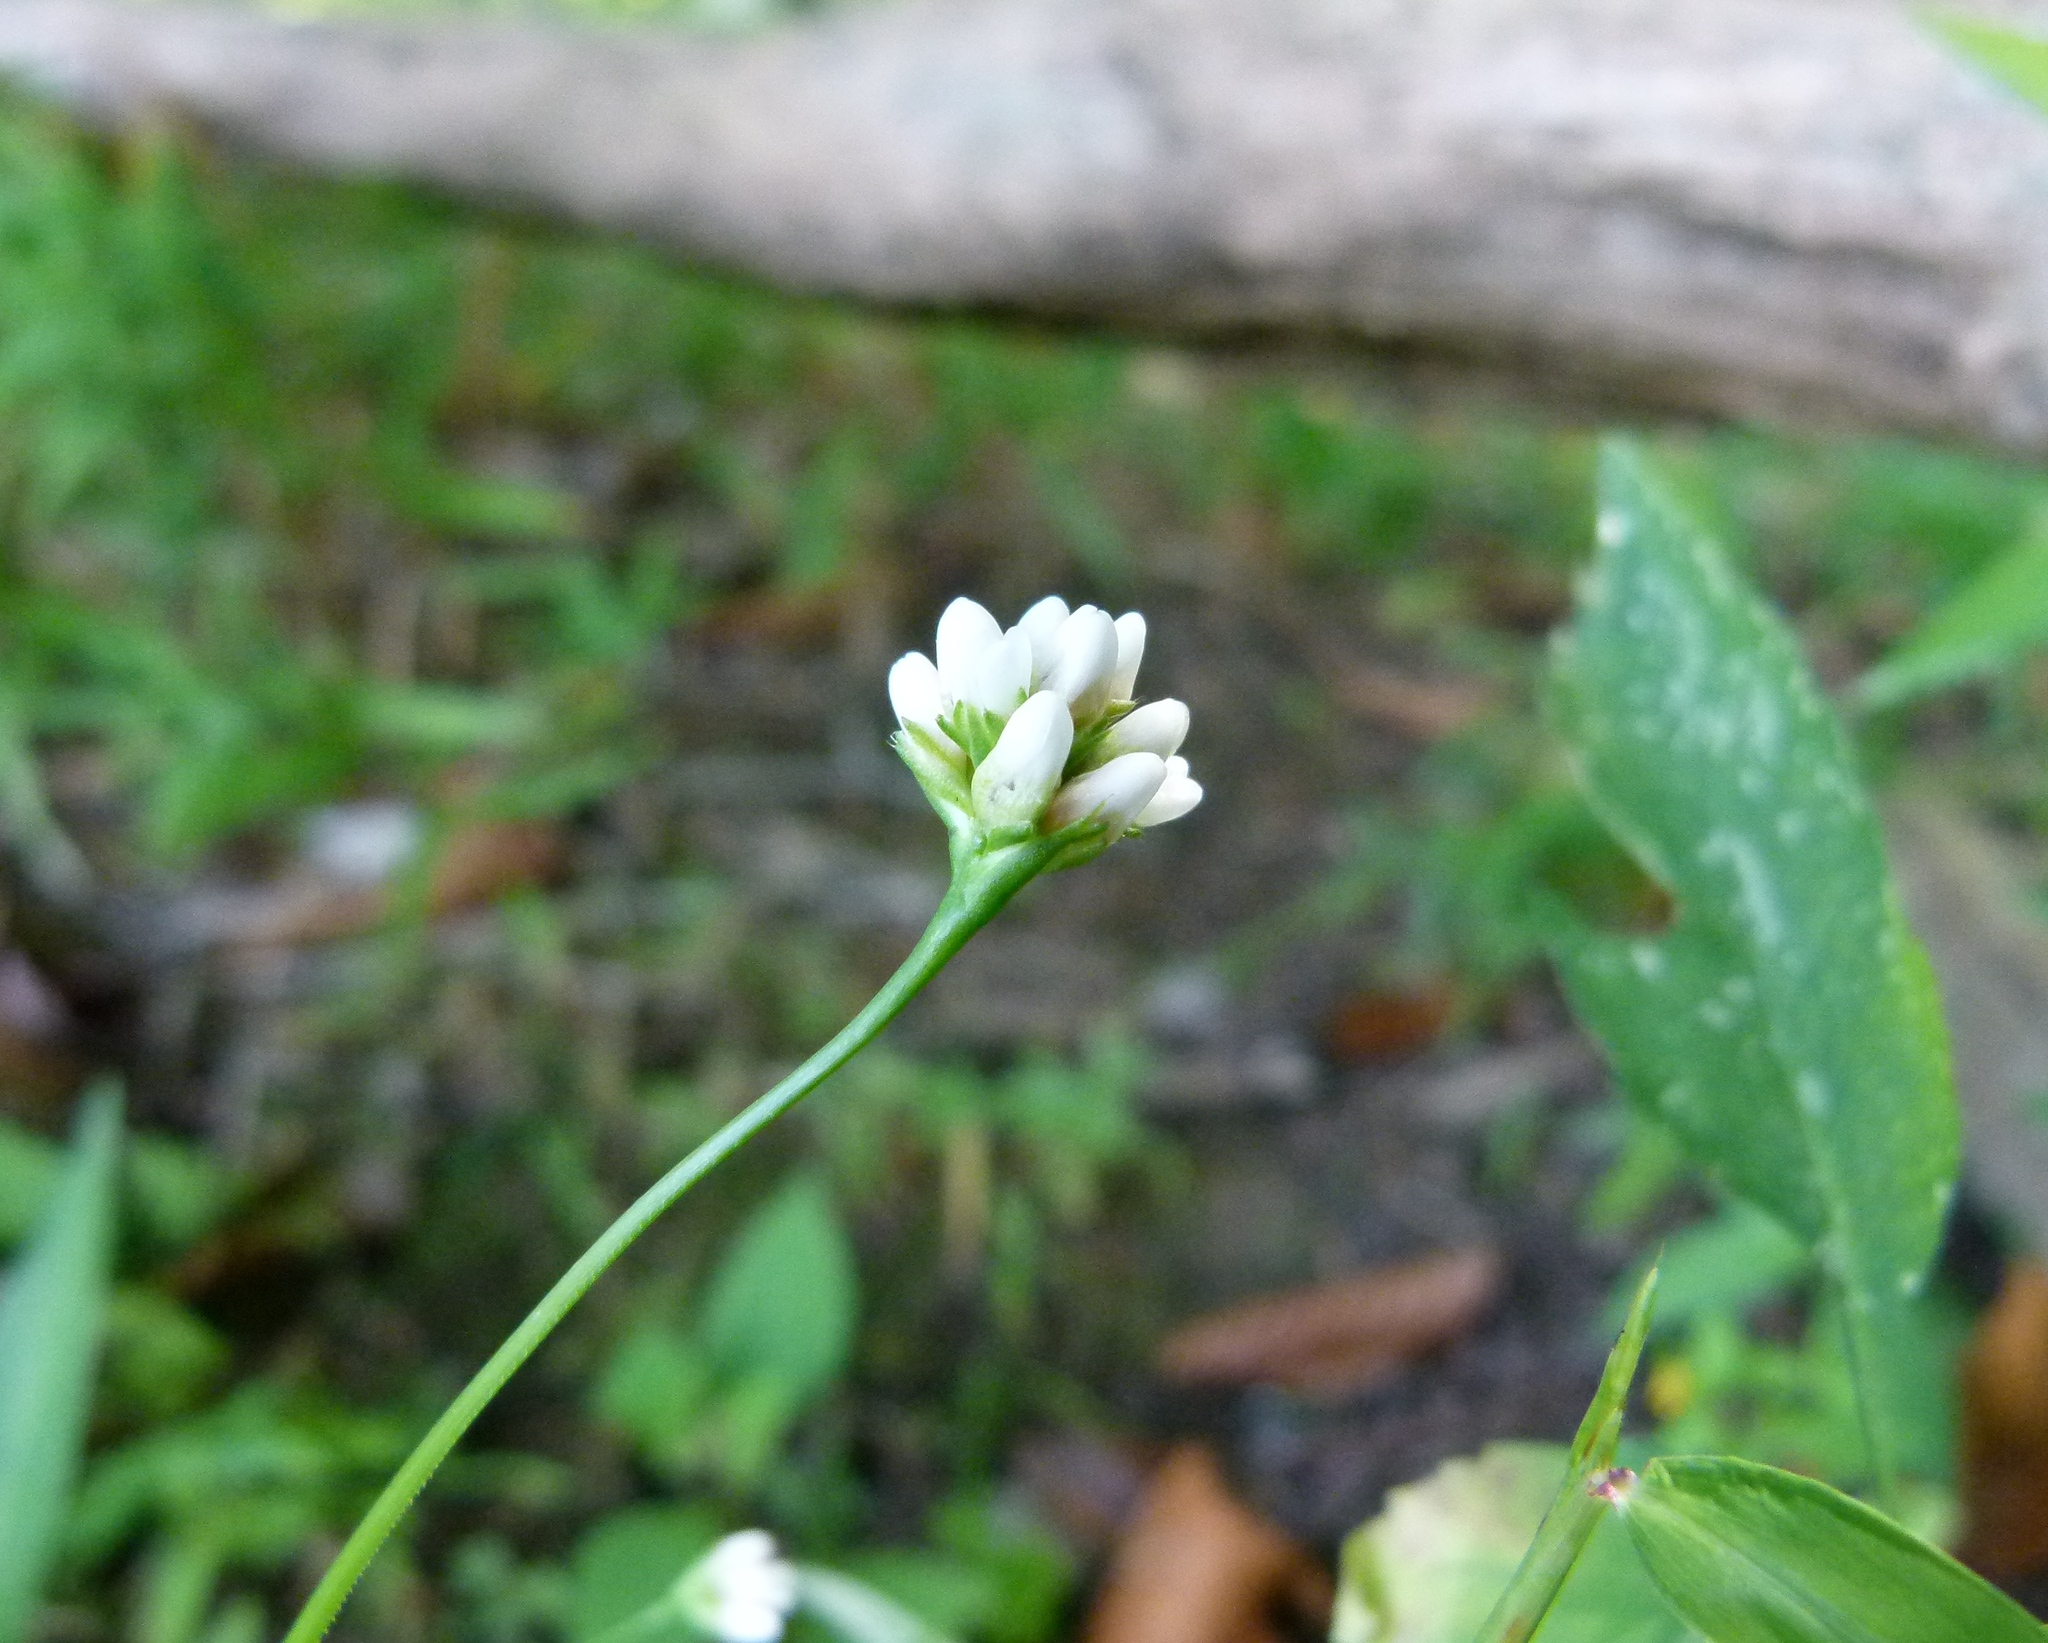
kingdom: Plantae
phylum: Tracheophyta
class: Magnoliopsida
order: Caryophyllales
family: Polygonaceae
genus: Persicaria
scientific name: Persicaria sagittata
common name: American tearthumb
